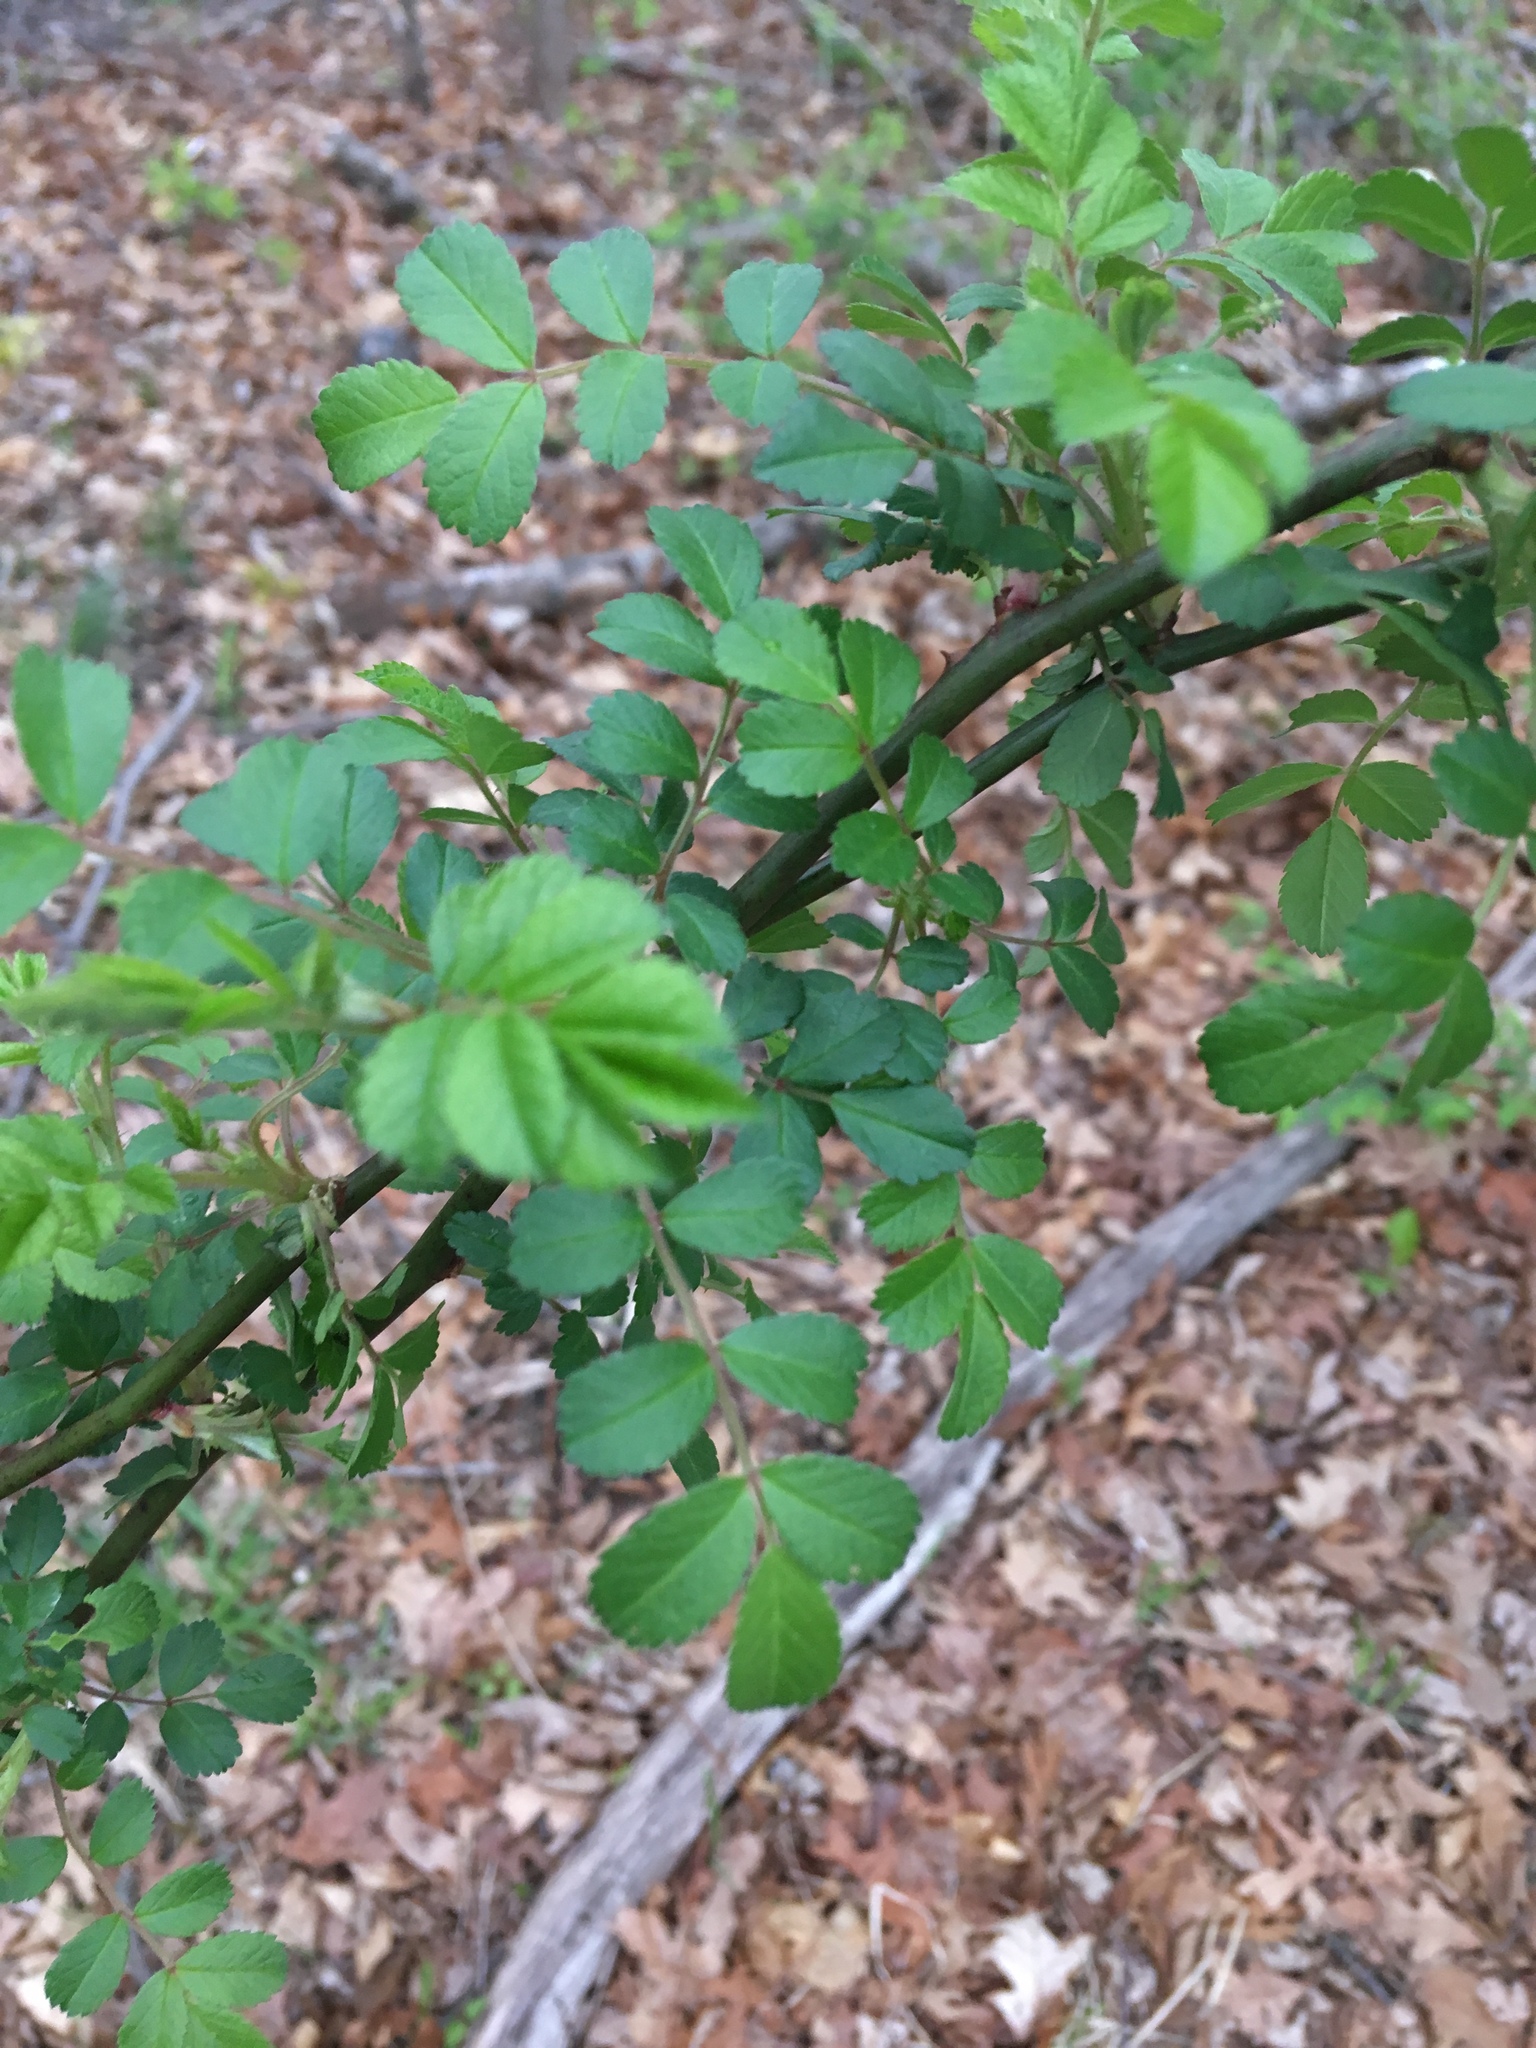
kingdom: Plantae
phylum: Tracheophyta
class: Magnoliopsida
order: Rosales
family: Rosaceae
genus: Rosa
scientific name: Rosa multiflora
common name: Multiflora rose
